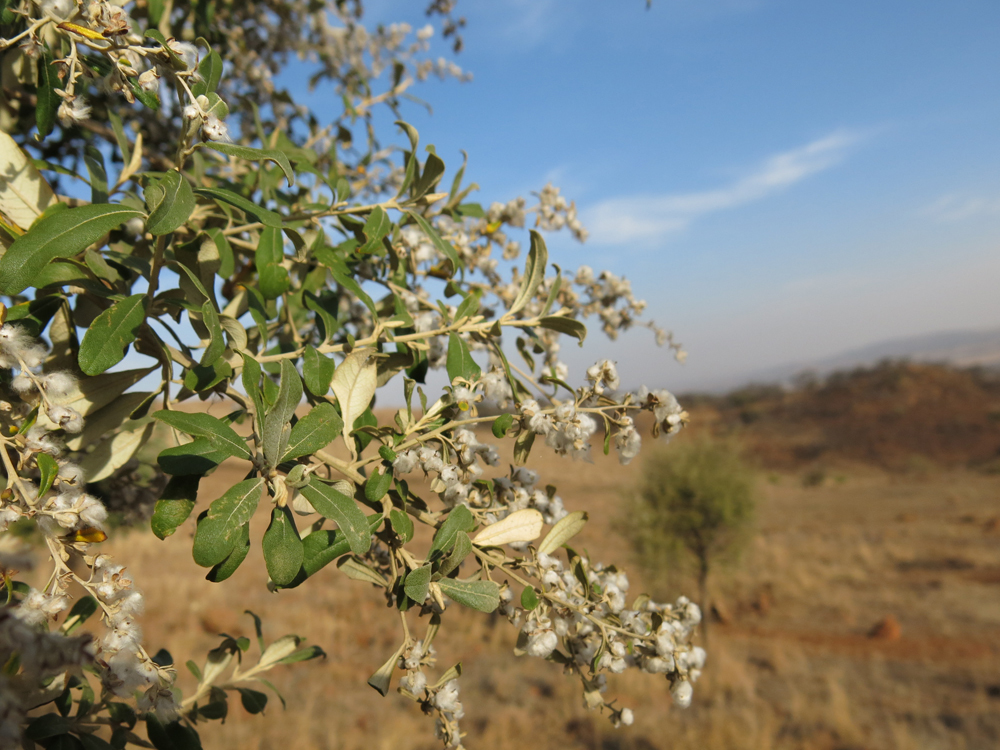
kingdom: Plantae
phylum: Tracheophyta
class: Magnoliopsida
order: Asterales
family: Asteraceae
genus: Tarchonanthus
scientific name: Tarchonanthus camphoratus
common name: Camphorwood
